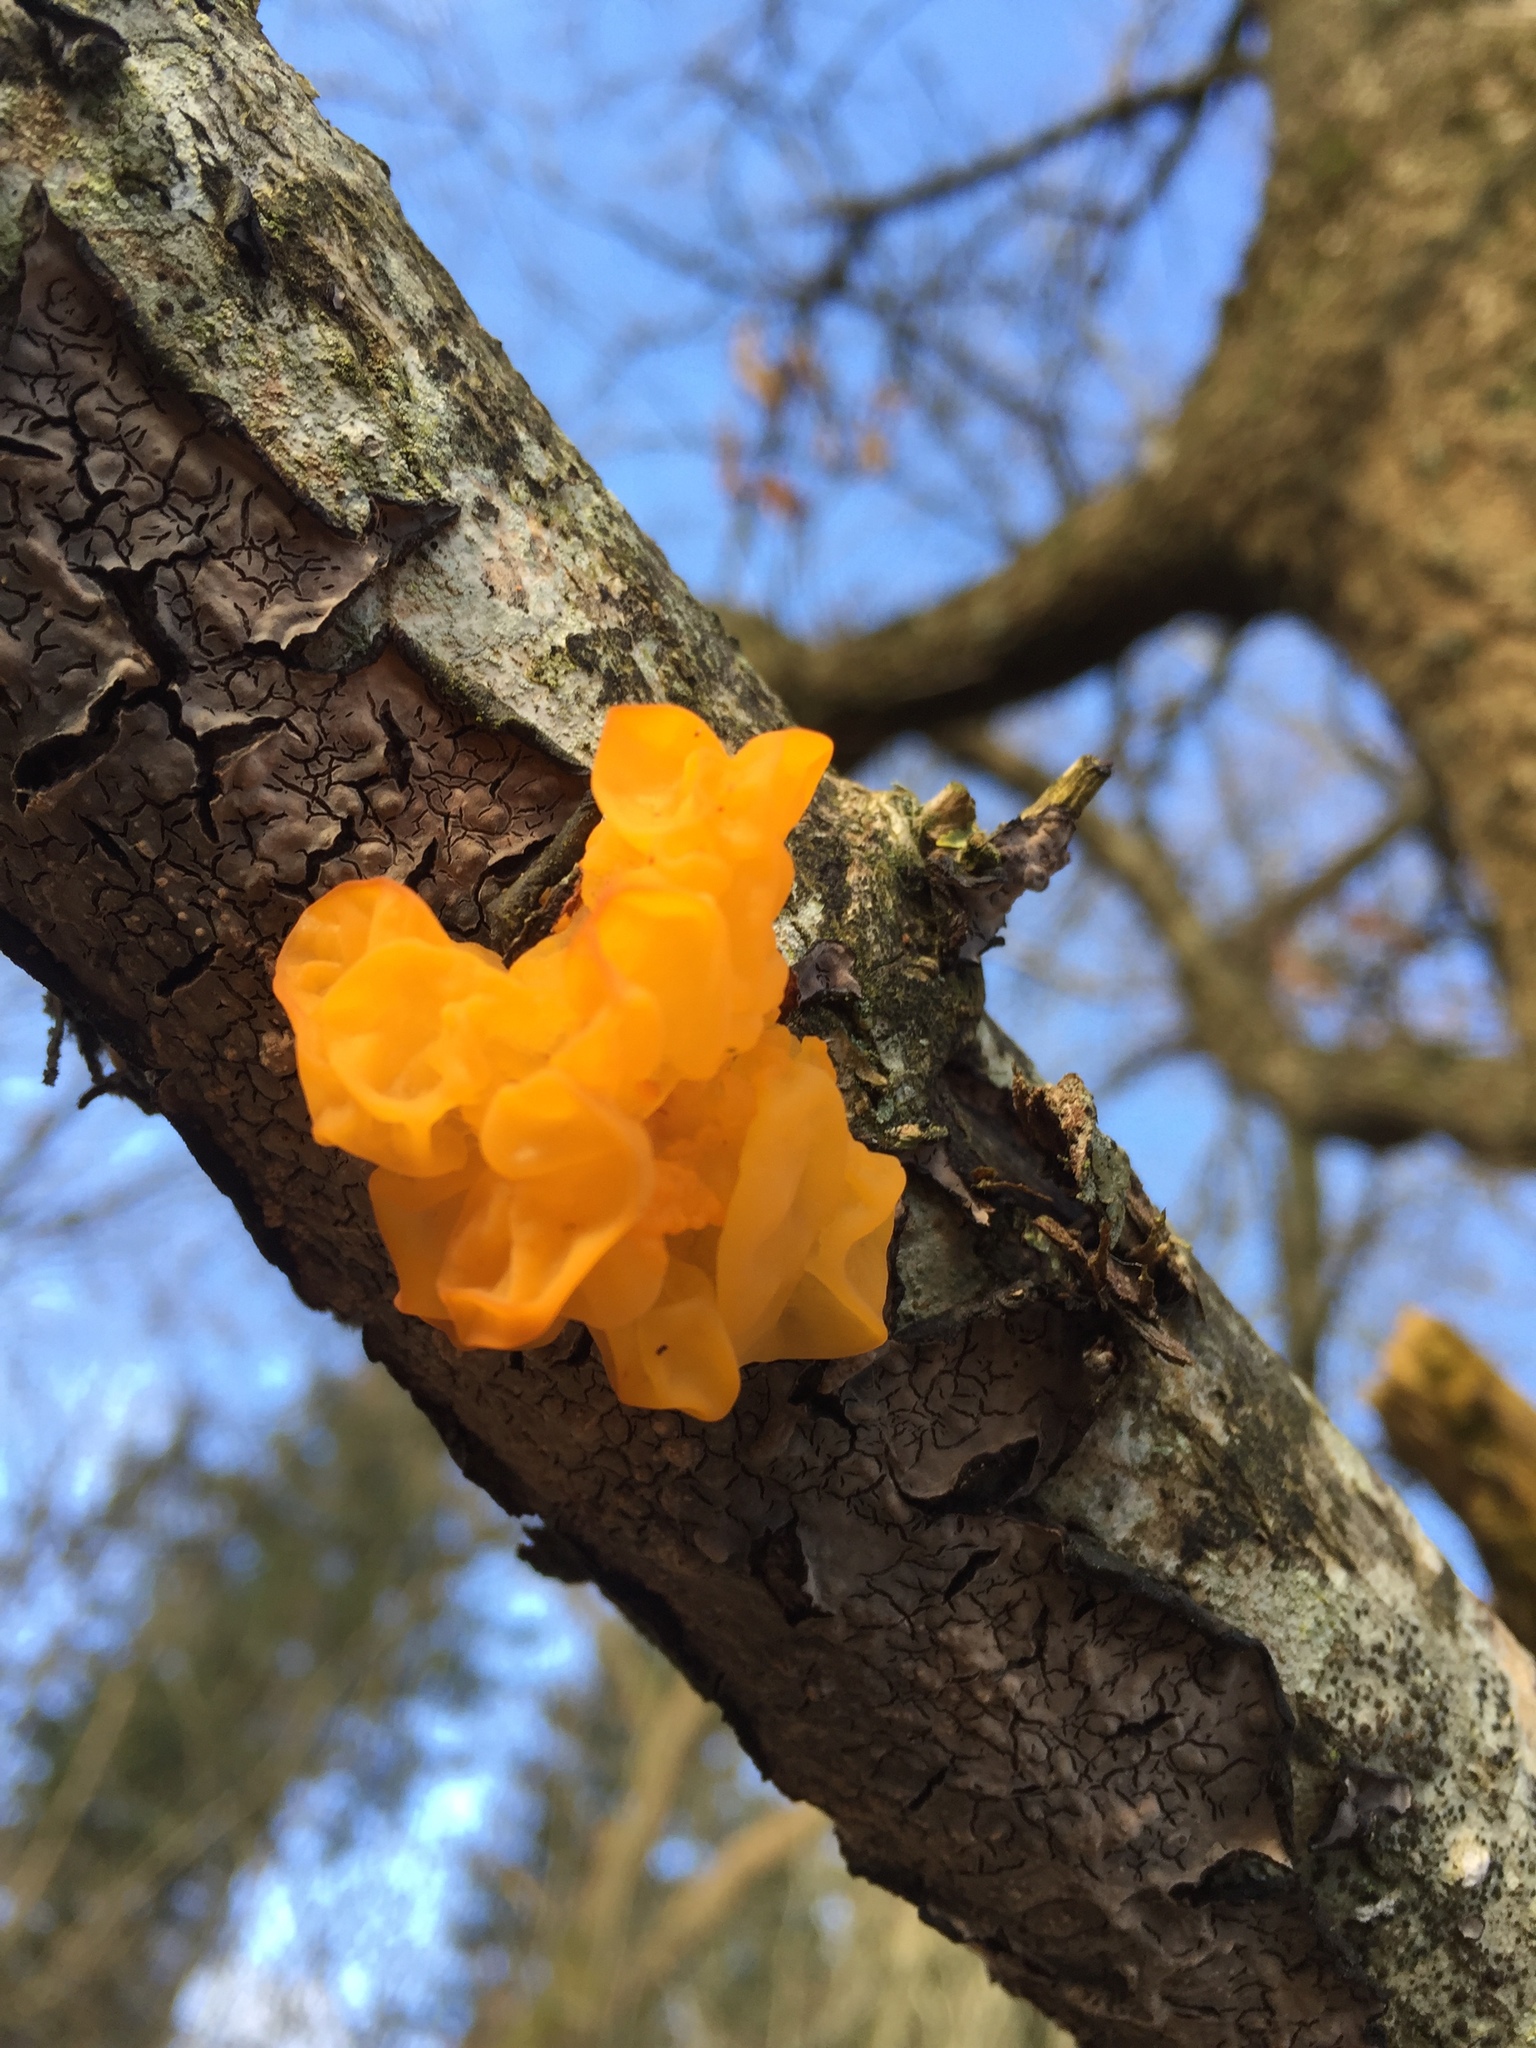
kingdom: Fungi
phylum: Basidiomycota
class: Tremellomycetes
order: Tremellales
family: Tremellaceae
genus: Tremella
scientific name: Tremella mesenterica
